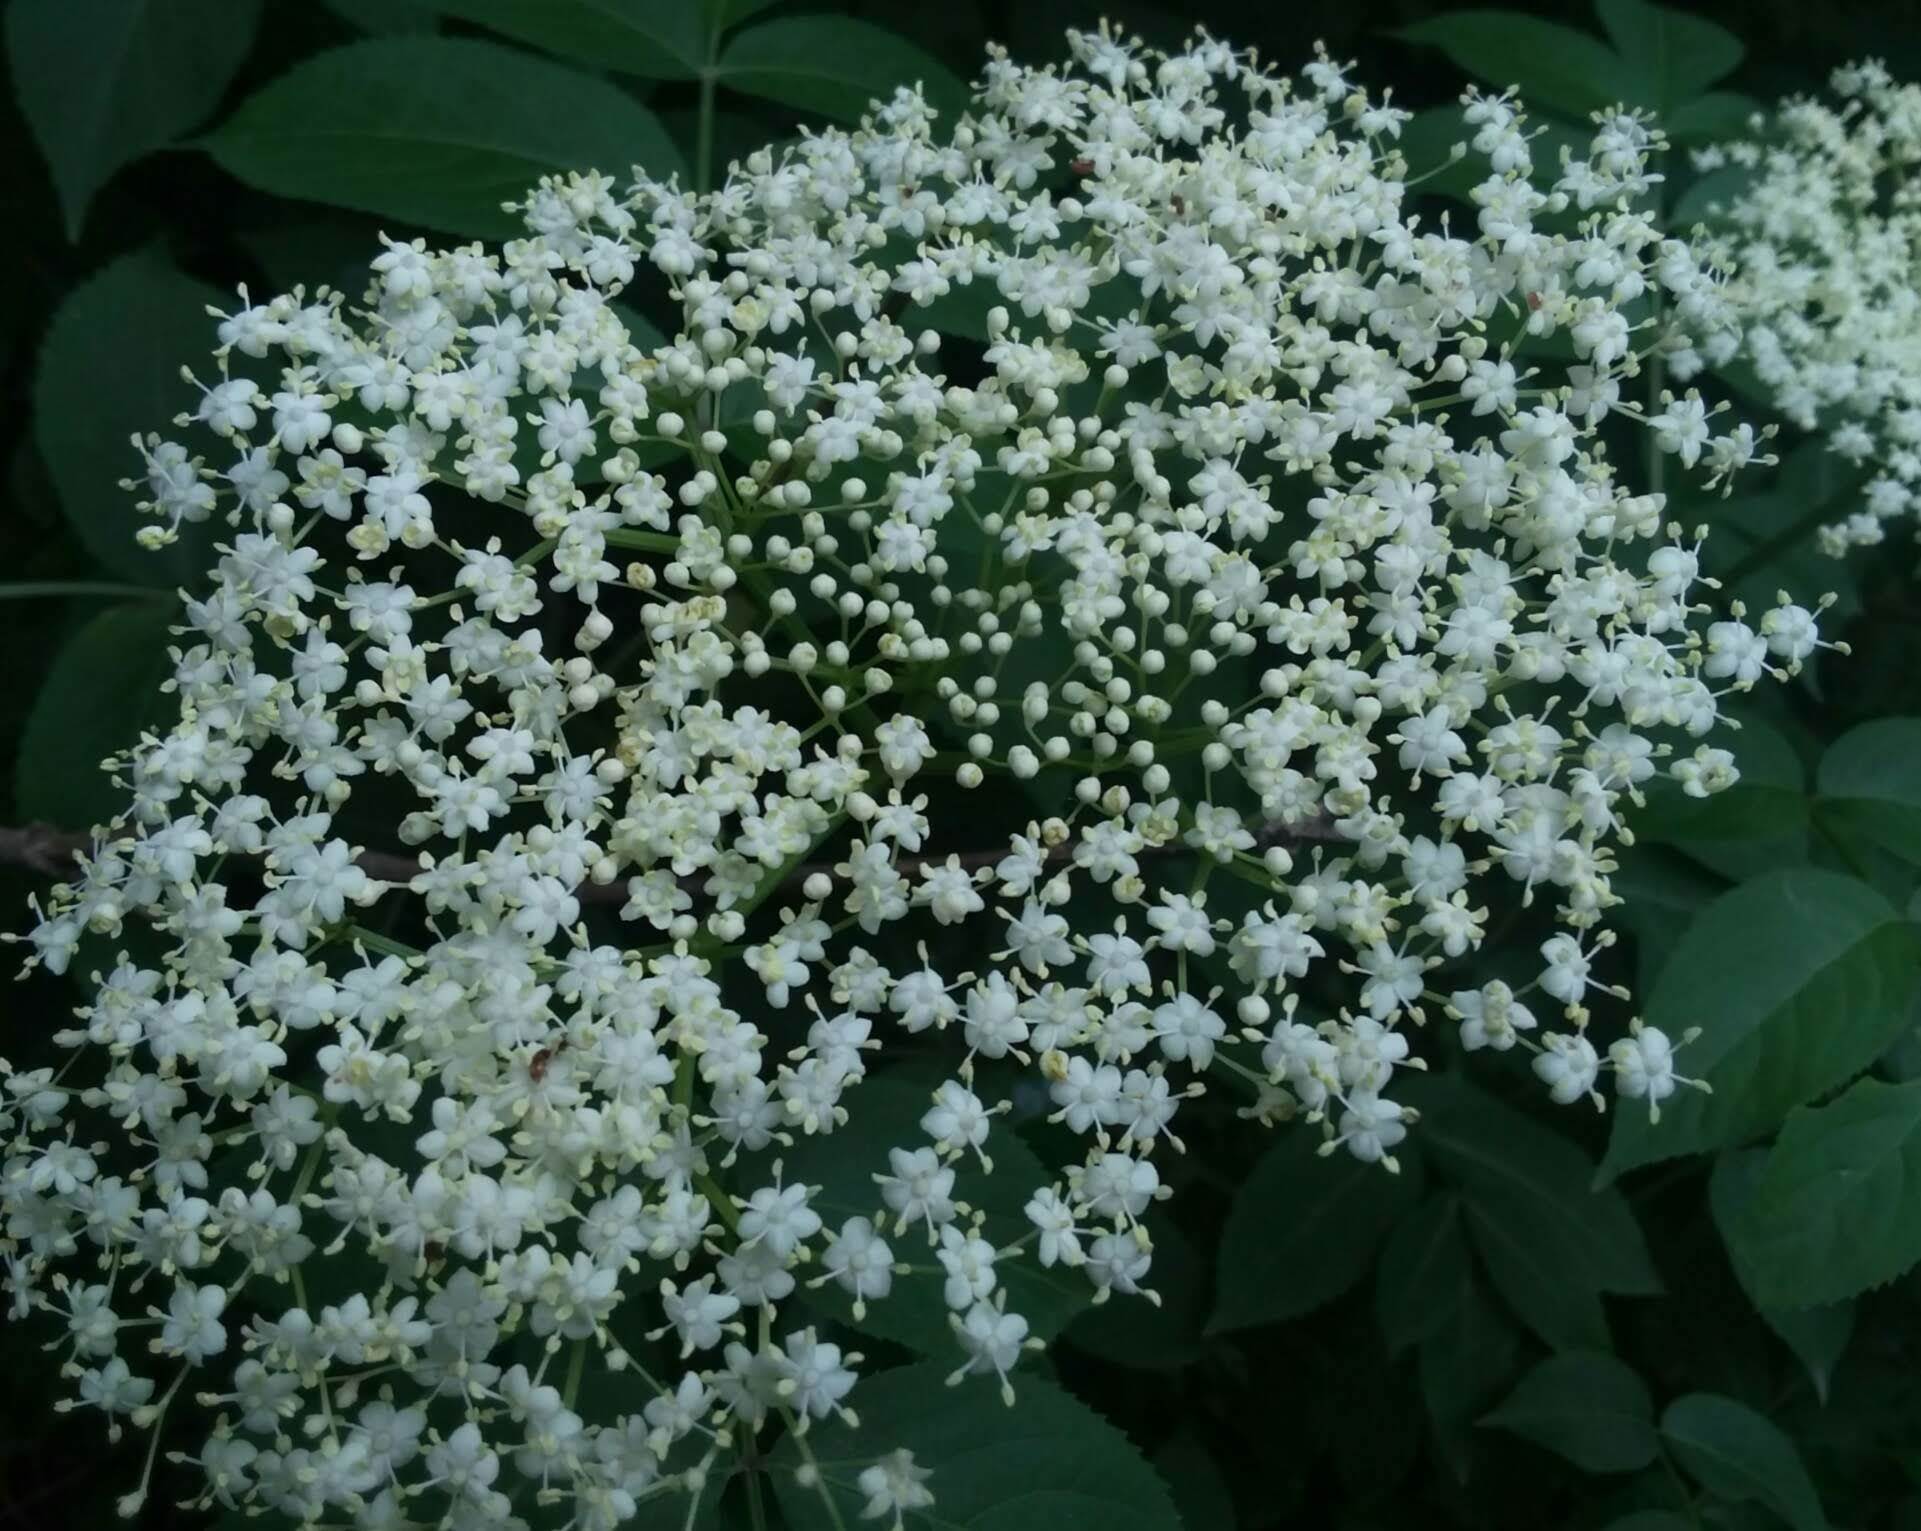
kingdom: Plantae
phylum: Tracheophyta
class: Magnoliopsida
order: Dipsacales
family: Viburnaceae
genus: Sambucus
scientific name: Sambucus canadensis
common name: American elder
